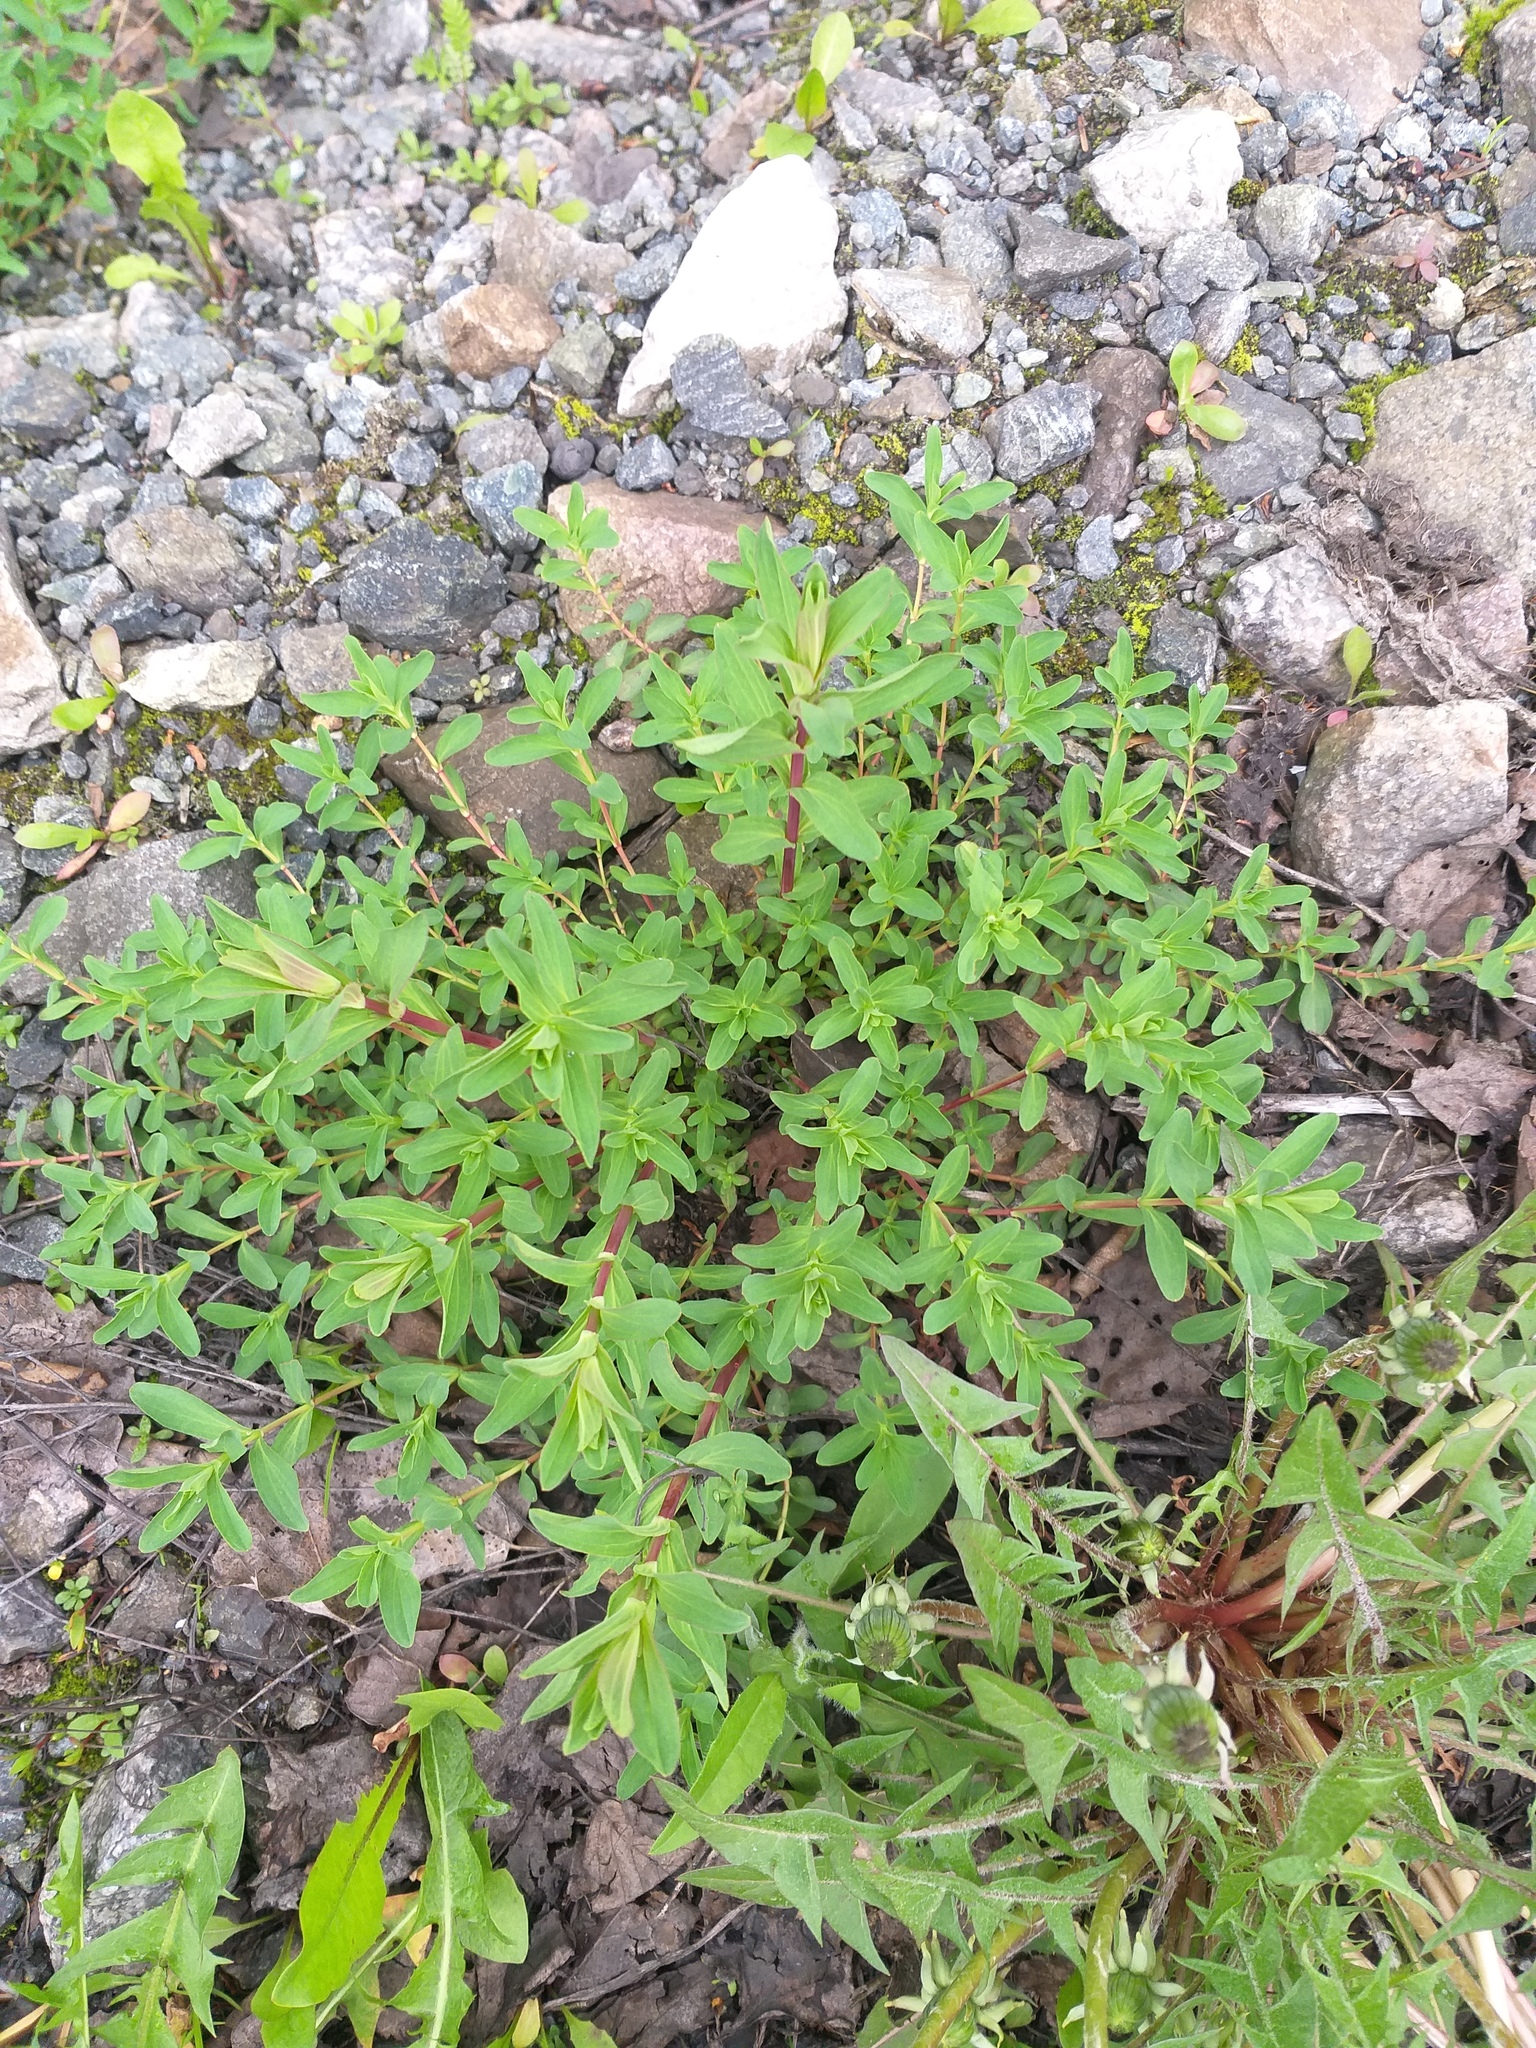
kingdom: Plantae
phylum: Tracheophyta
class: Magnoliopsida
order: Malpighiales
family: Hypericaceae
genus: Hypericum
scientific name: Hypericum perforatum
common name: Common st. johnswort
